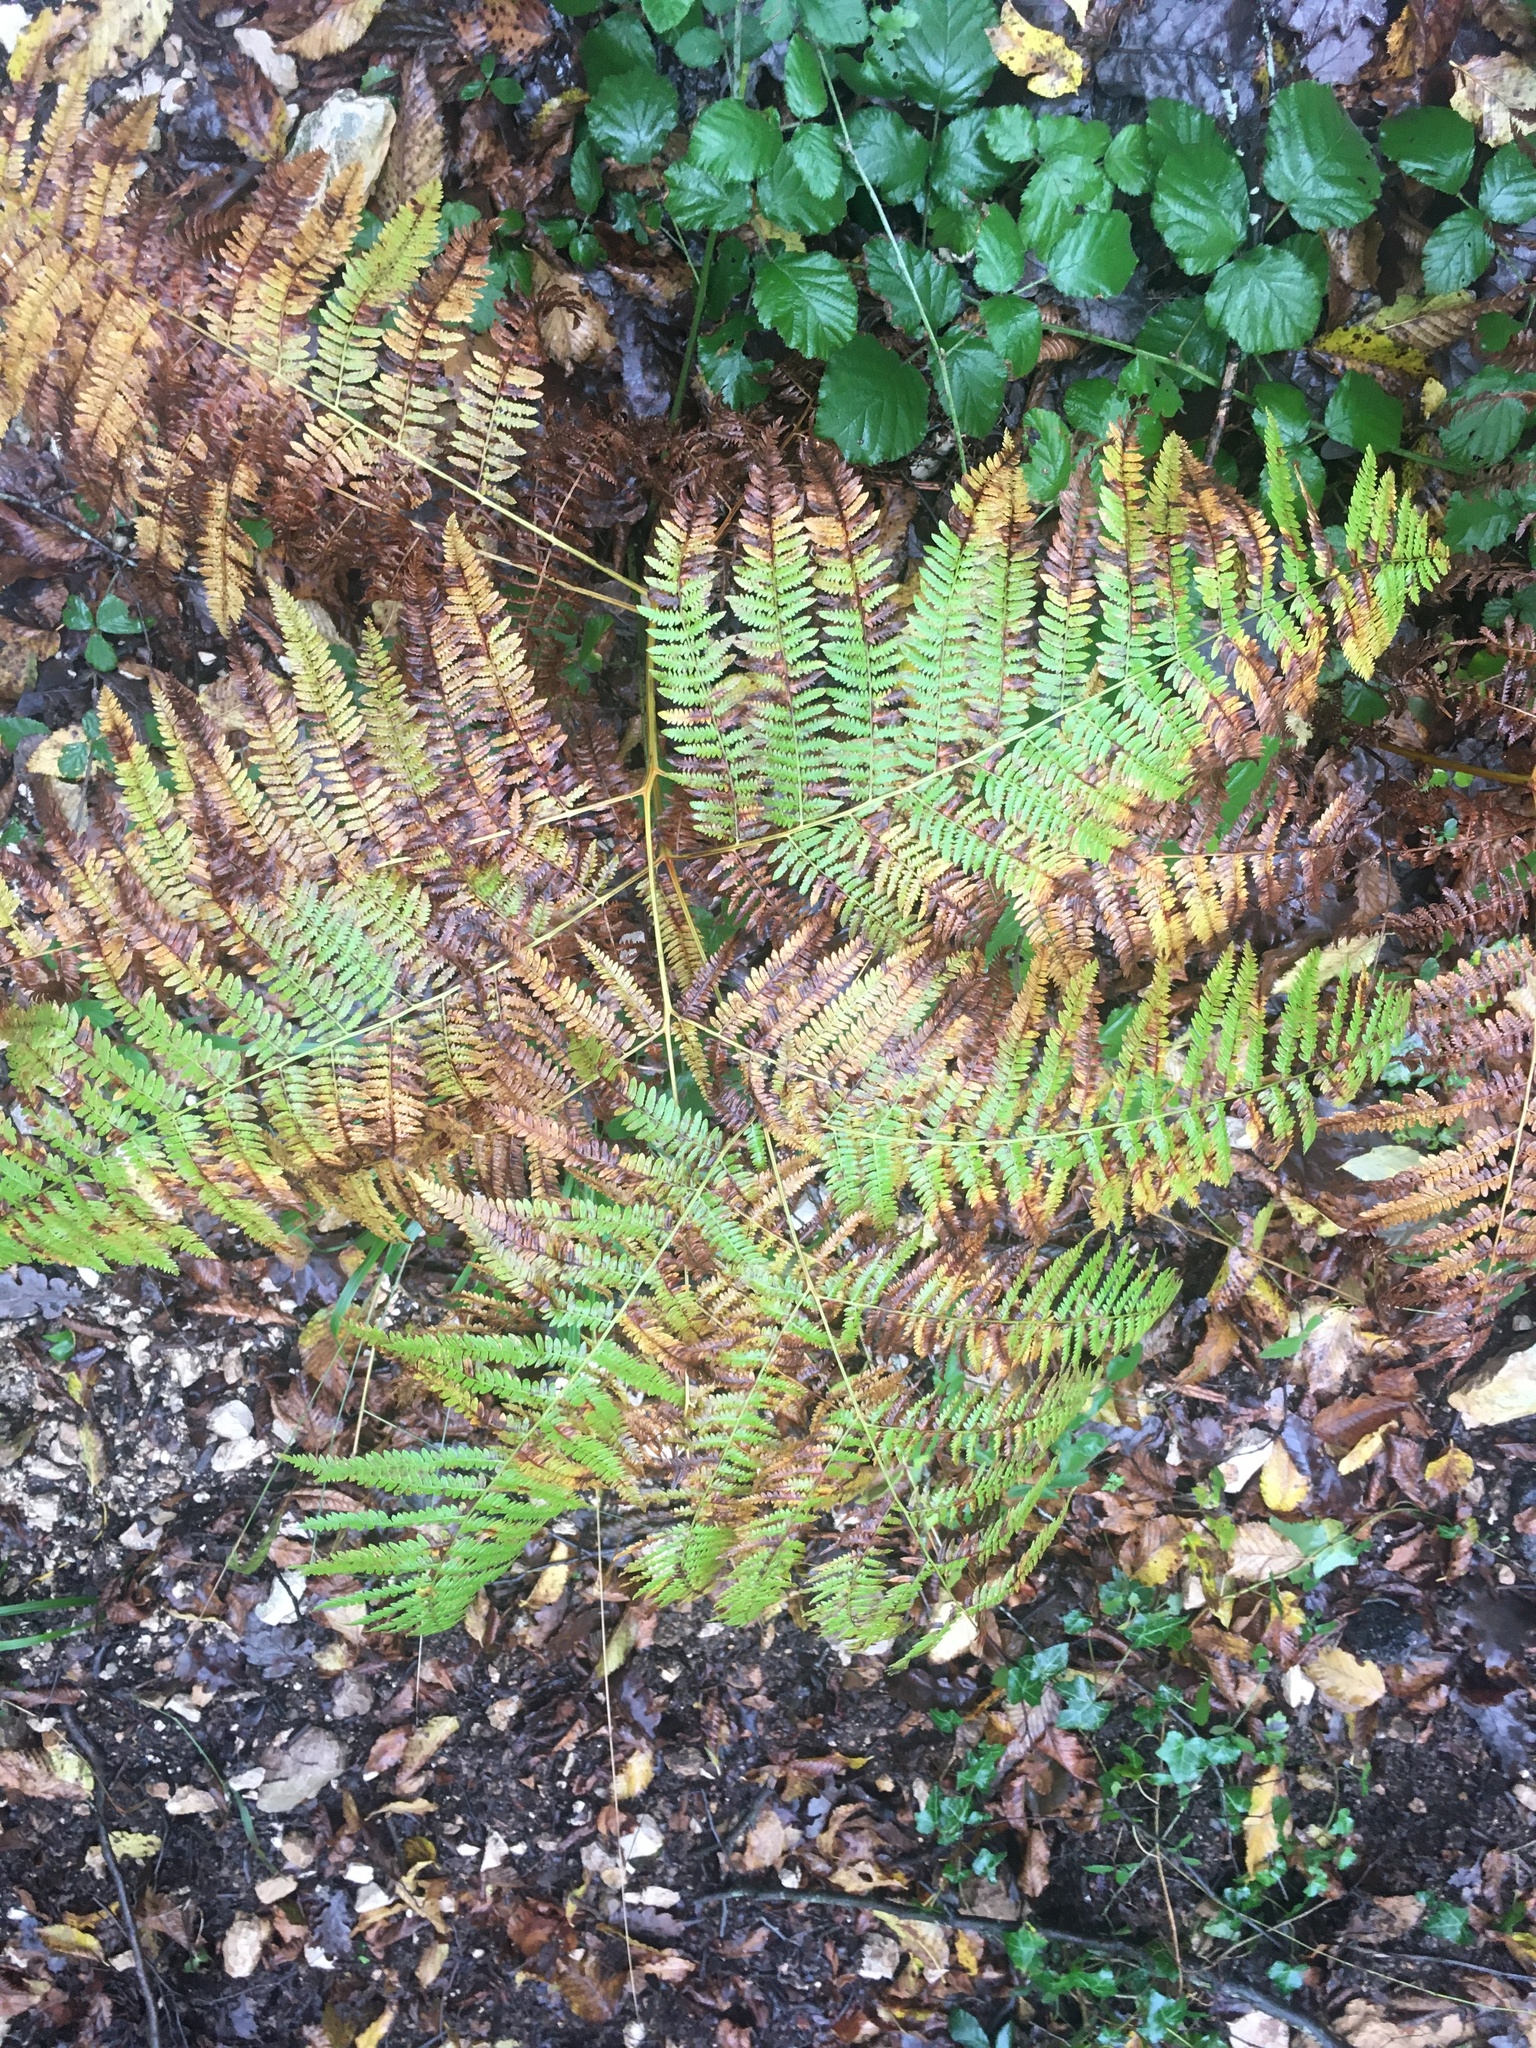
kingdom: Plantae
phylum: Tracheophyta
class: Polypodiopsida
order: Polypodiales
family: Dennstaedtiaceae
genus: Pteridium
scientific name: Pteridium aquilinum
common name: Bracken
